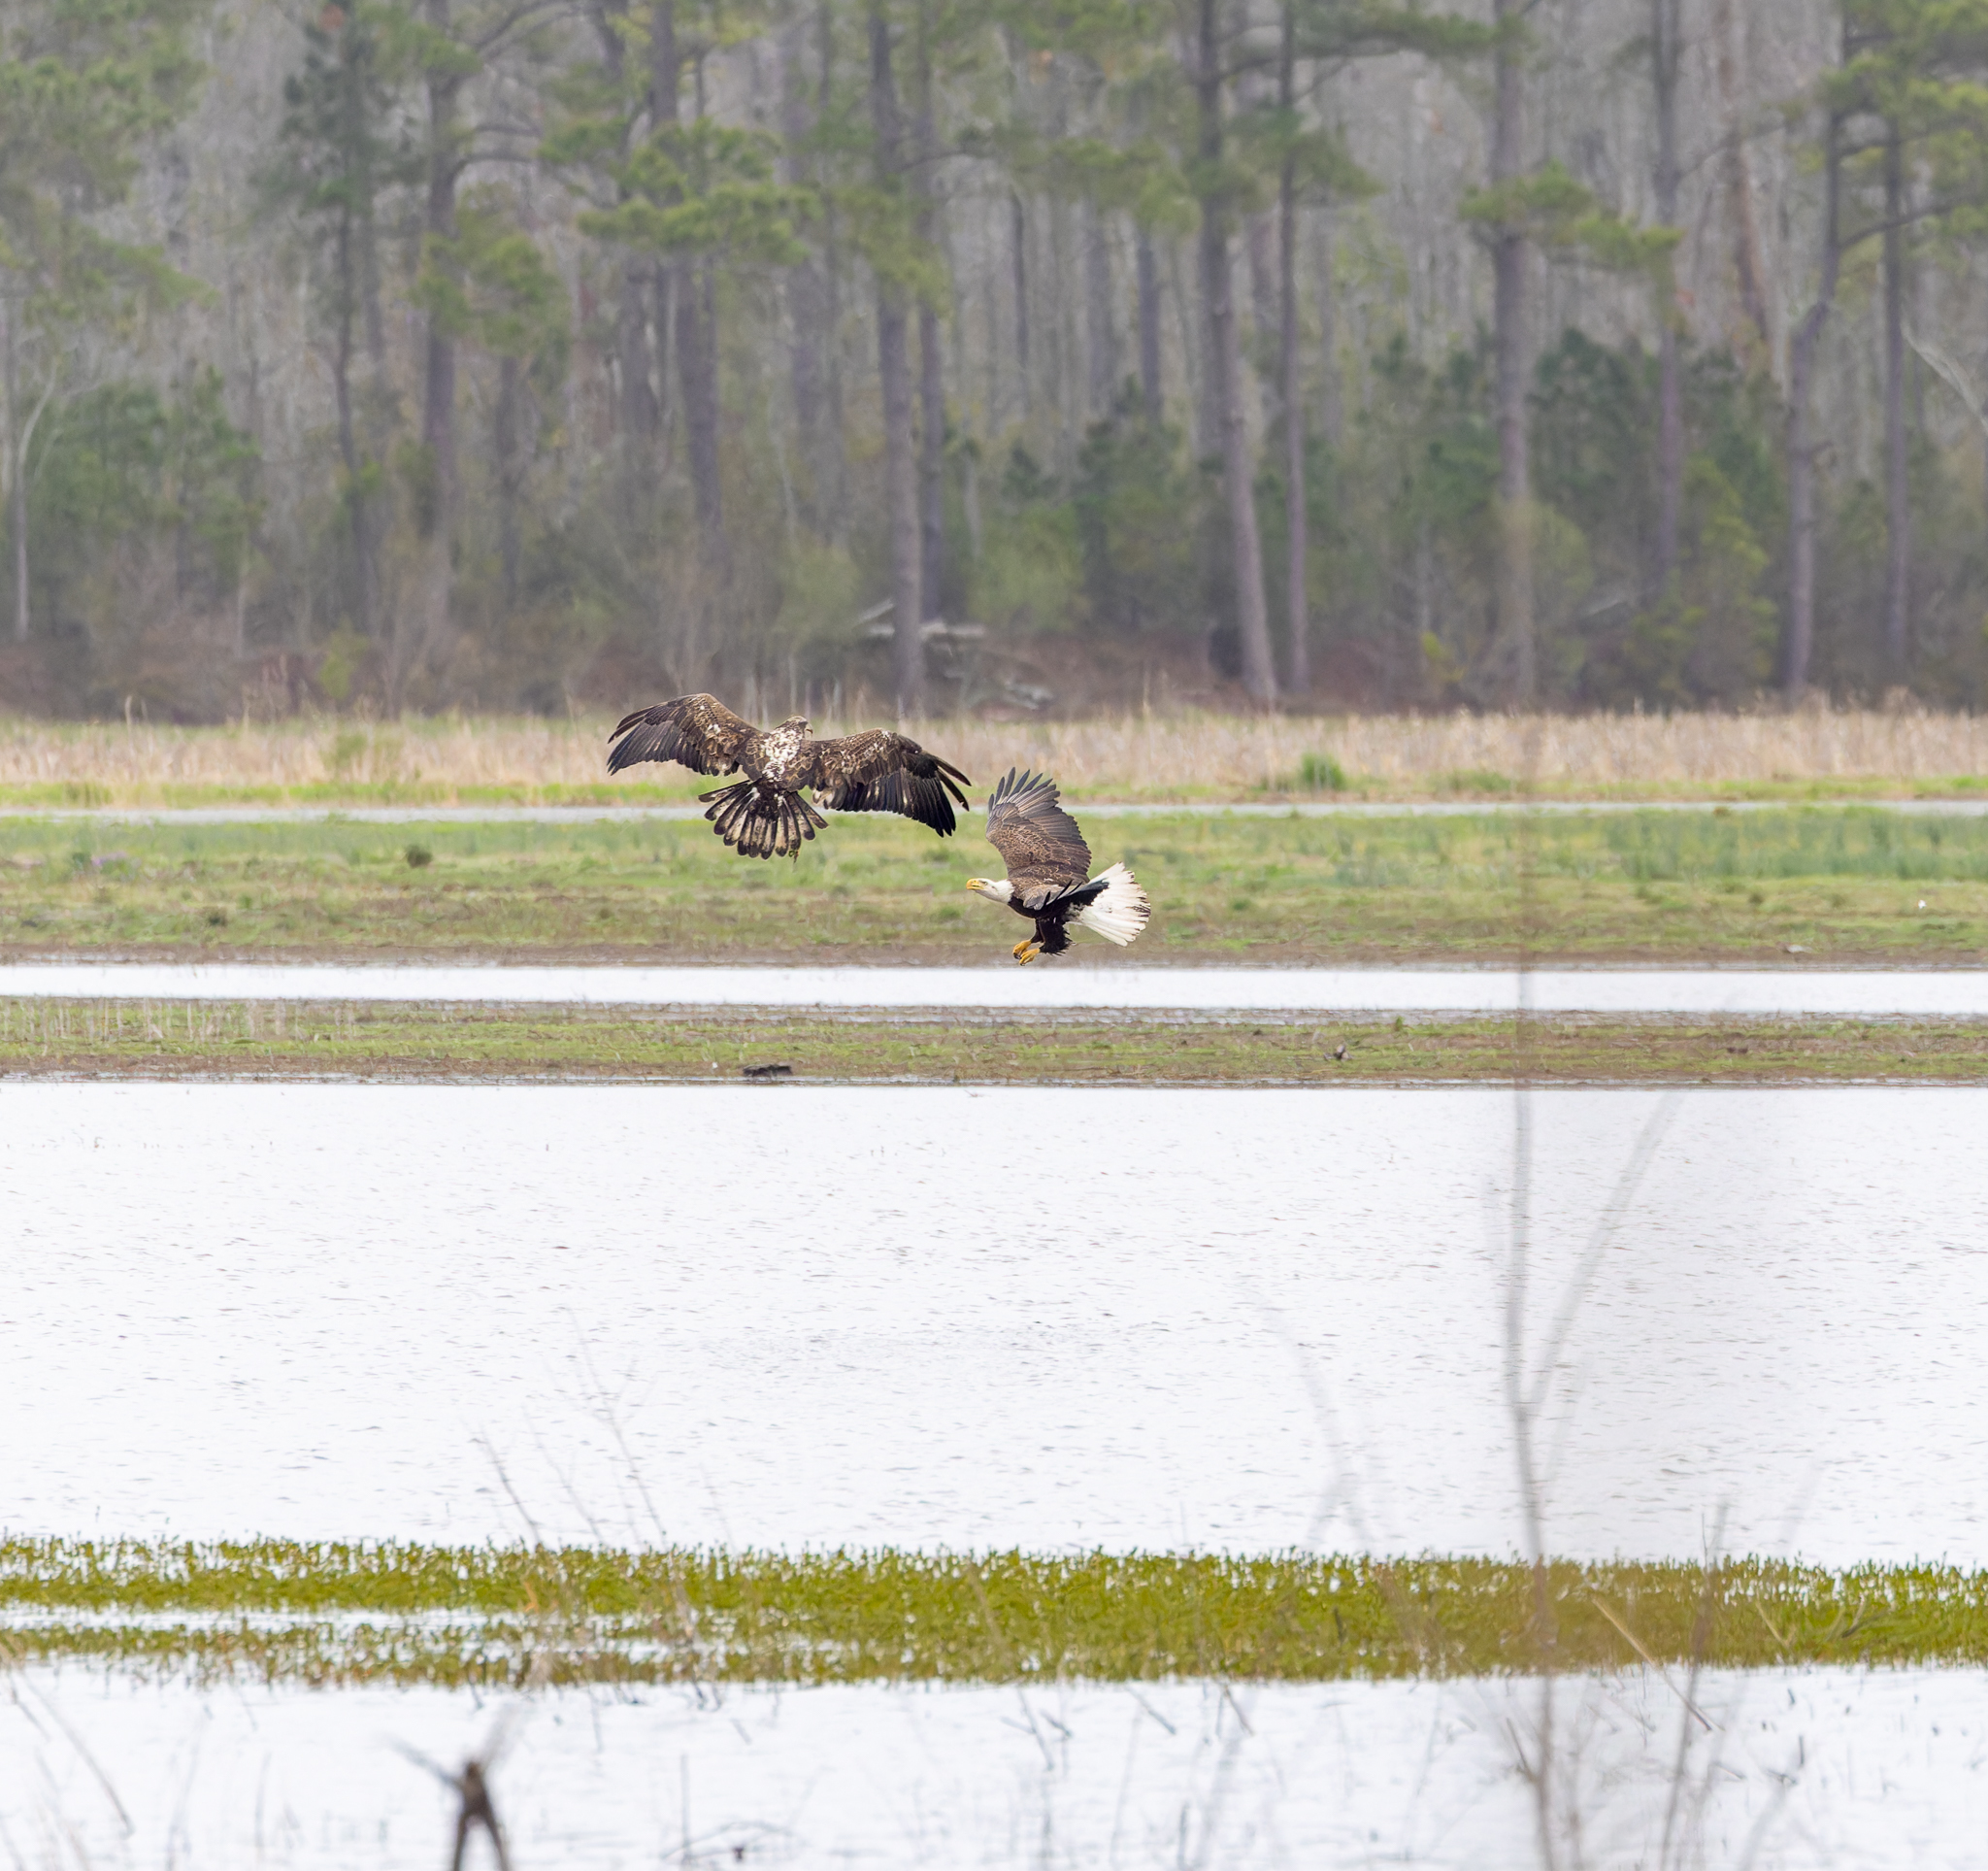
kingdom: Animalia
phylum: Chordata
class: Aves
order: Accipitriformes
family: Accipitridae
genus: Haliaeetus
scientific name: Haliaeetus leucocephalus
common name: Bald eagle
